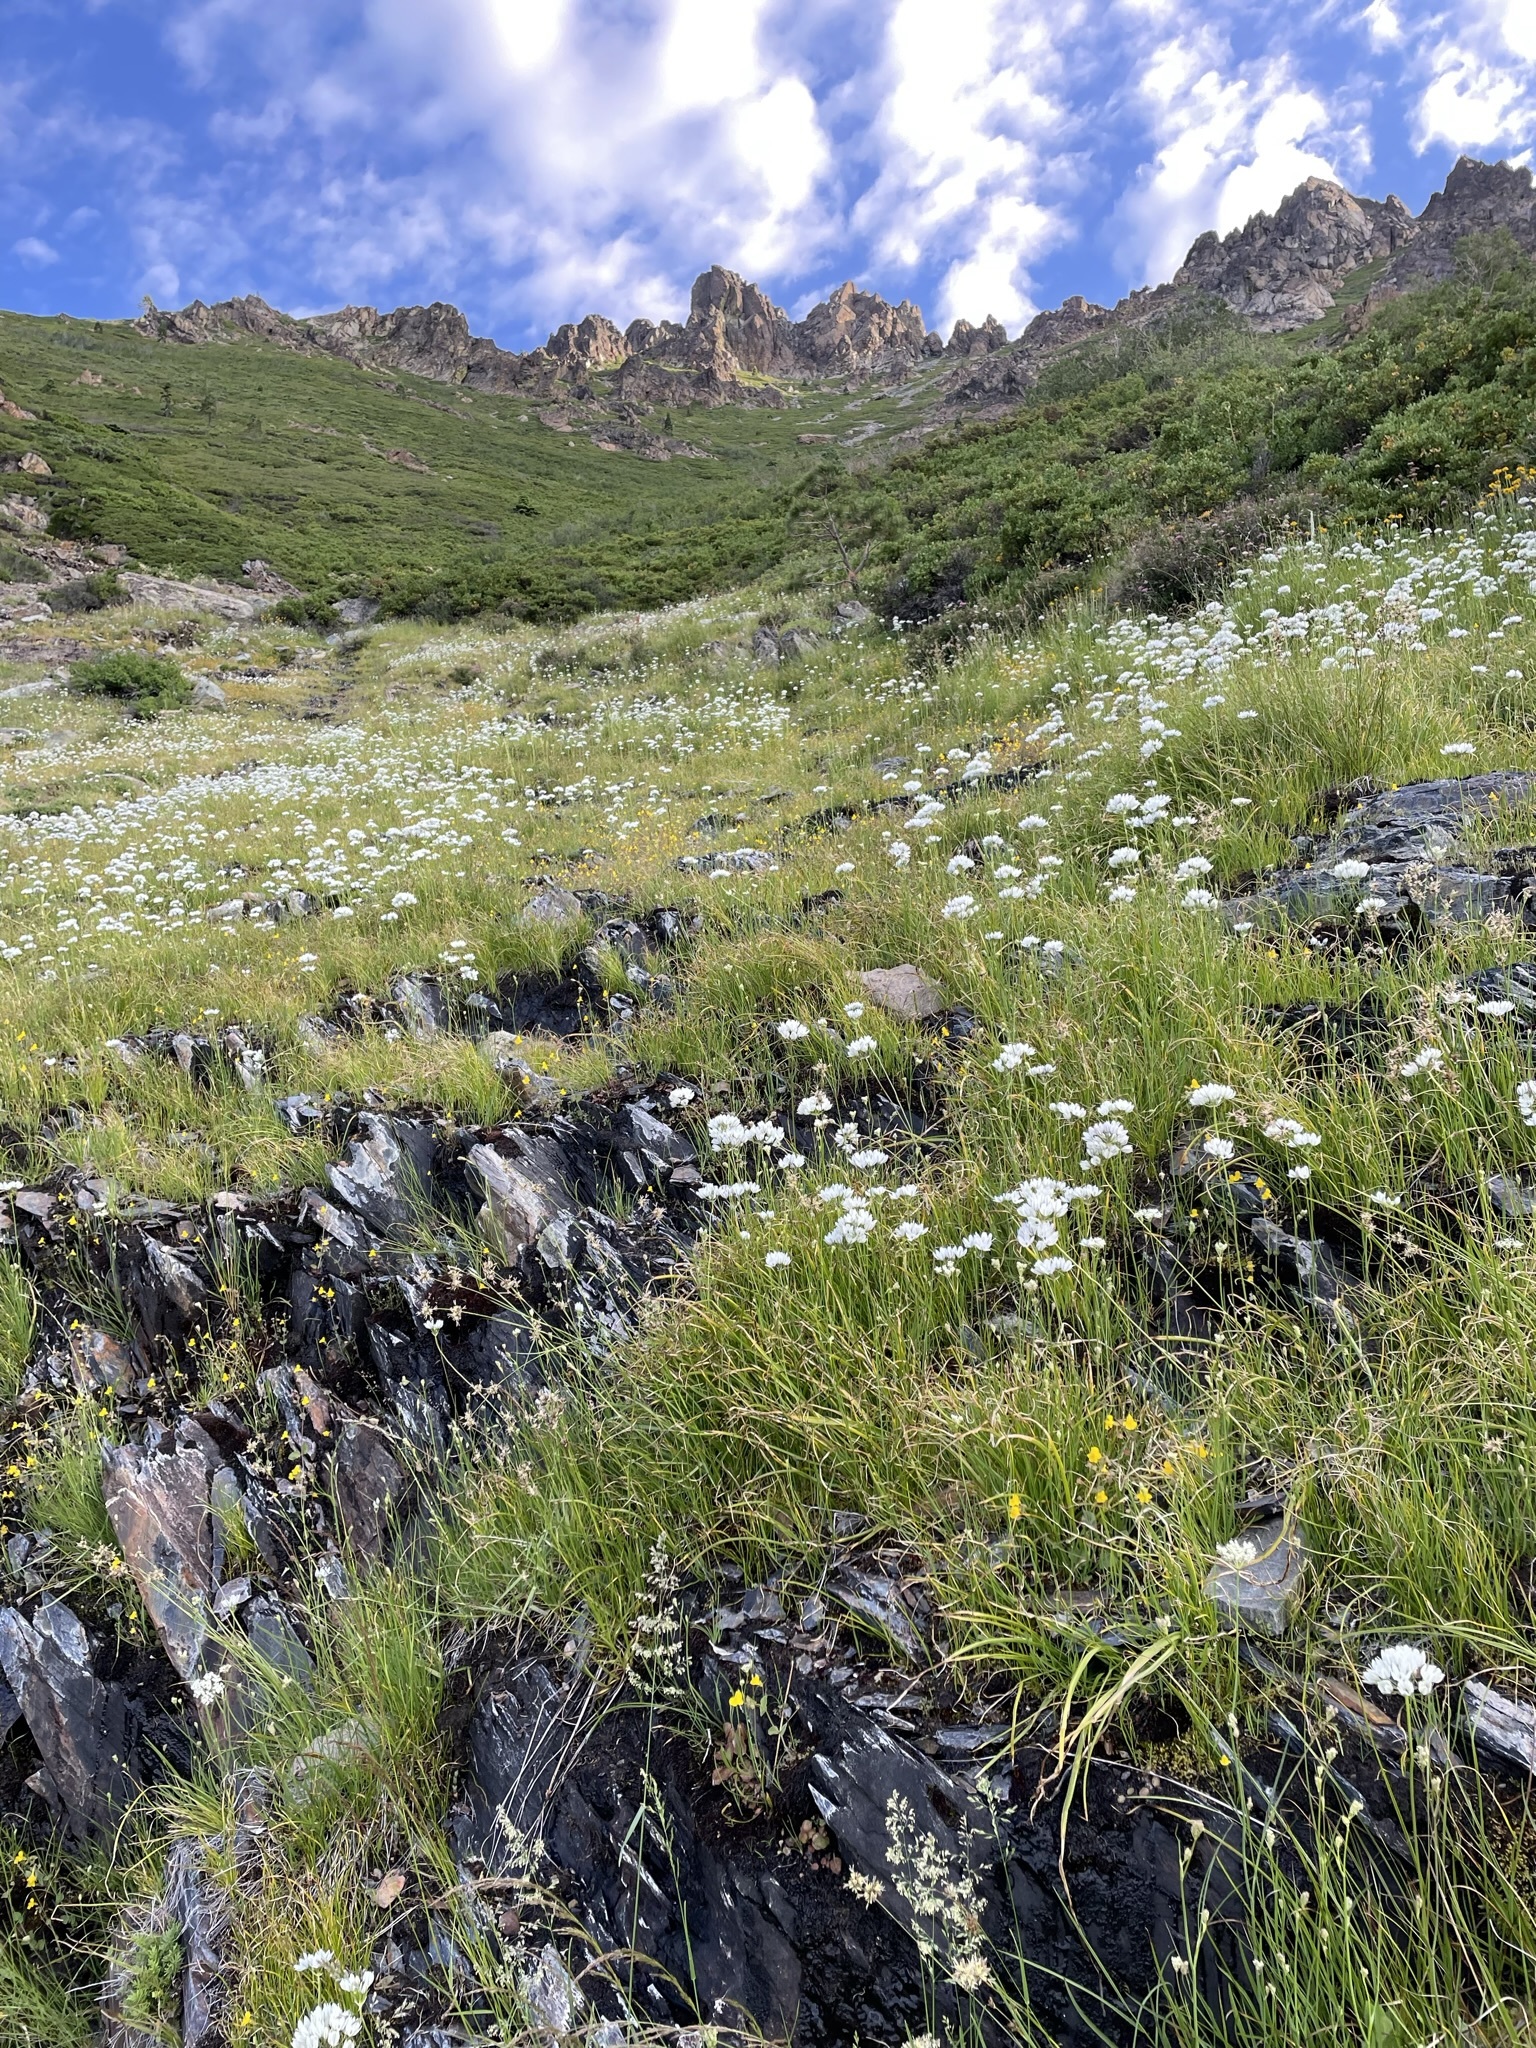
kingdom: Plantae
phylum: Tracheophyta
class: Liliopsida
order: Asparagales
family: Asparagaceae
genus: Triteleia
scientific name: Triteleia hyacinthina
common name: White brodiaea
